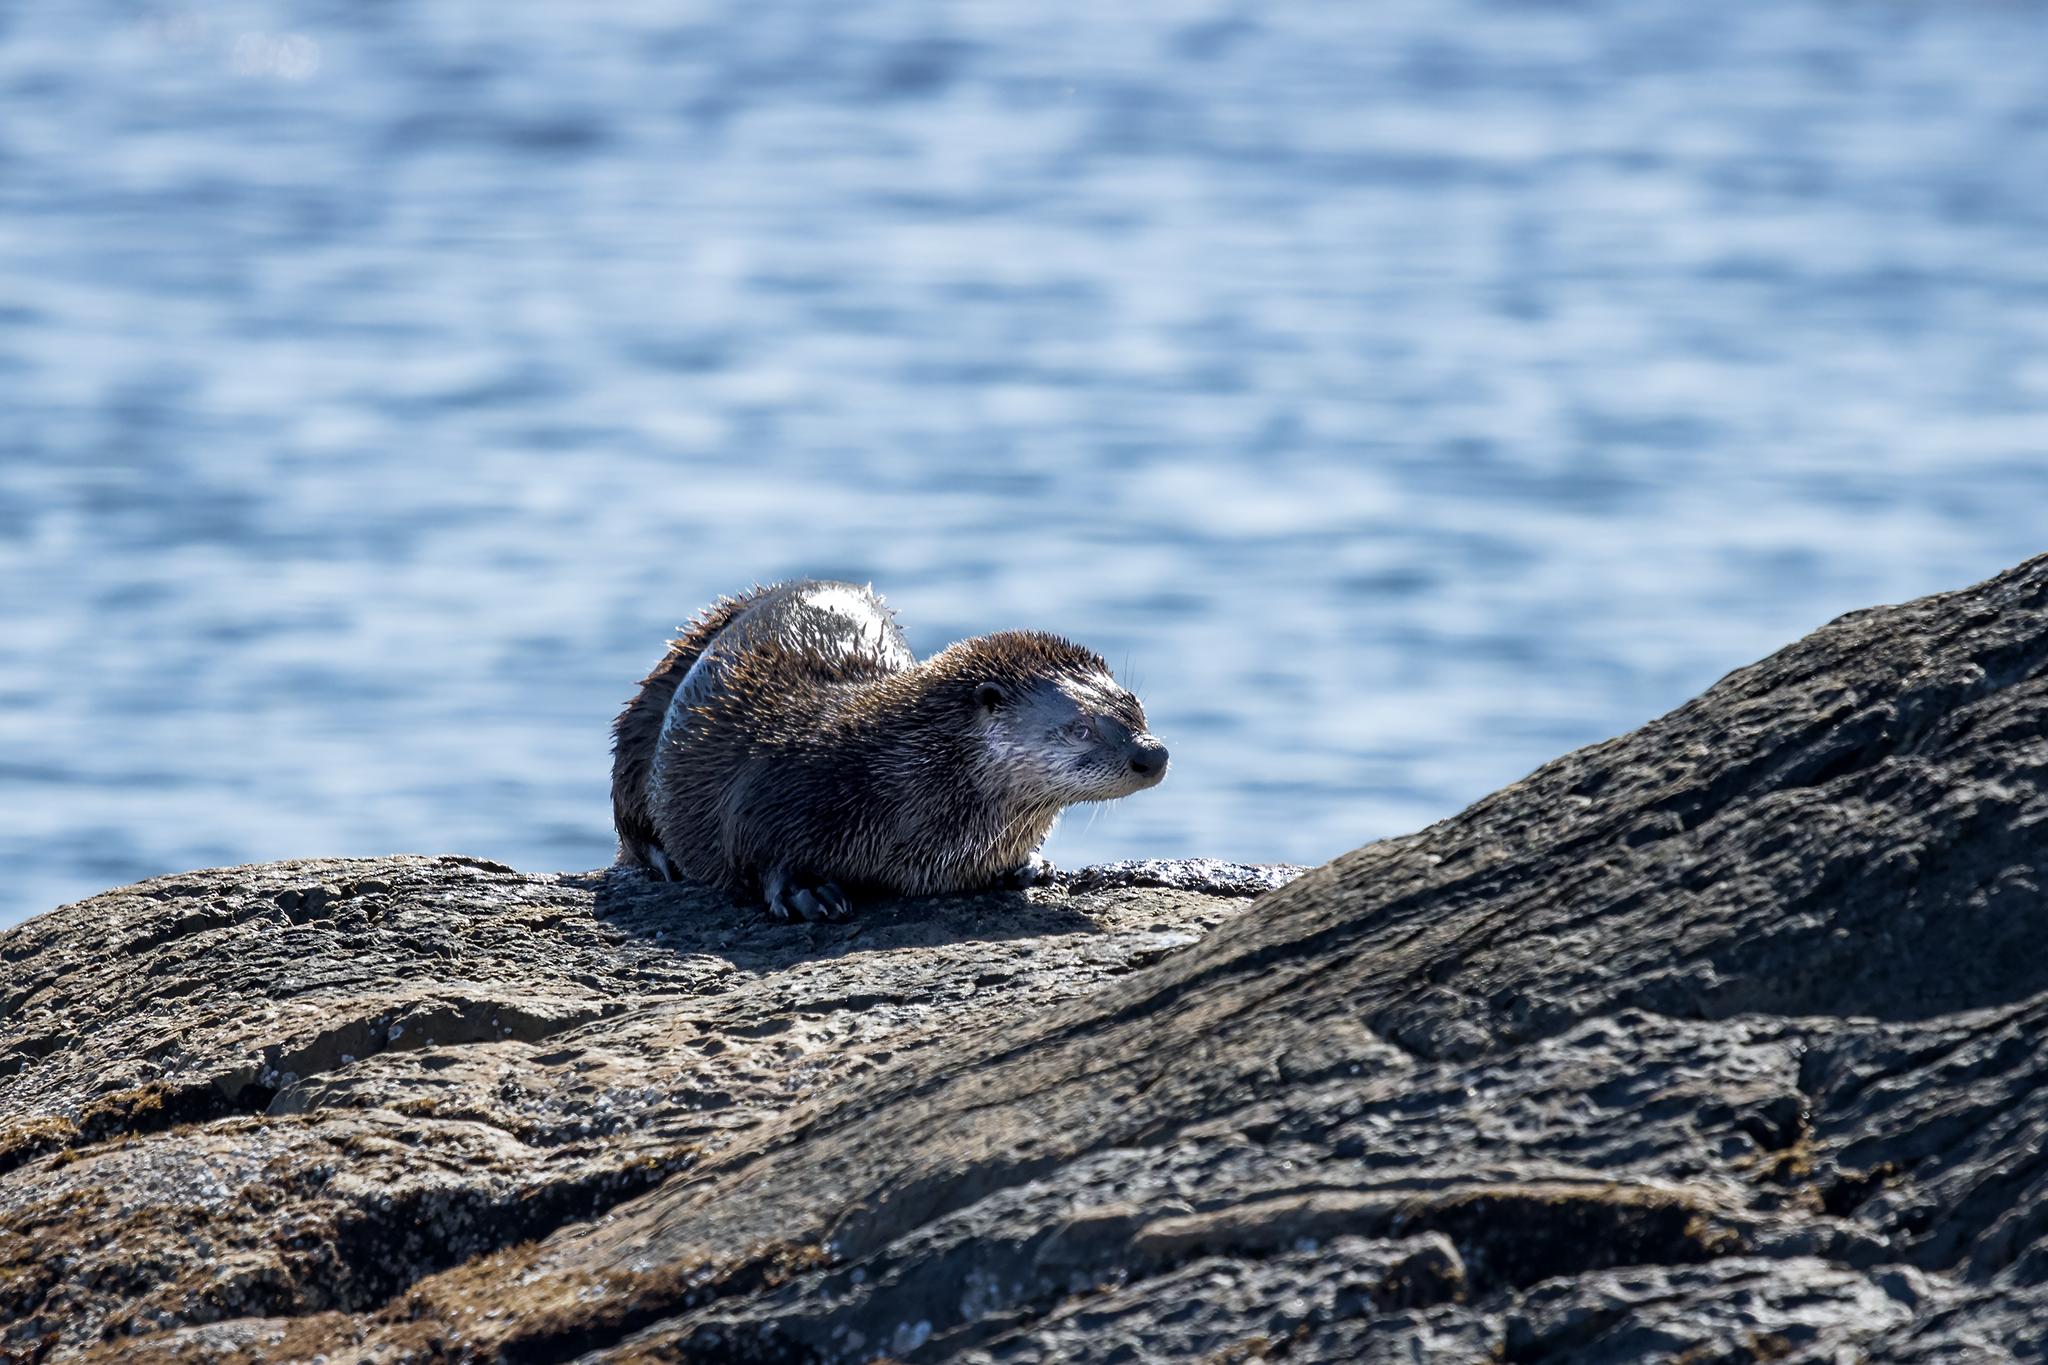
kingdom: Animalia
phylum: Chordata
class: Mammalia
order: Carnivora
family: Mustelidae
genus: Lontra
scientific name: Lontra canadensis
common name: North american river otter
